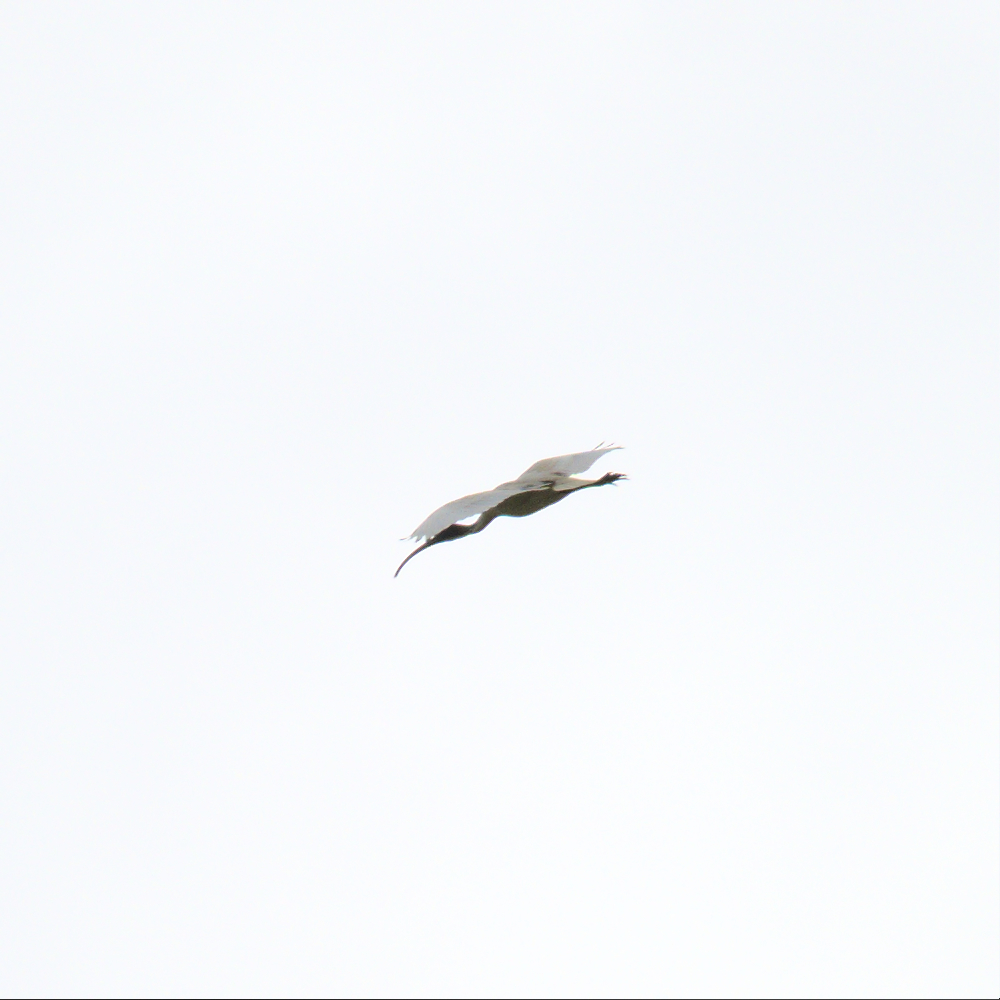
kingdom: Animalia
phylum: Chordata
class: Aves
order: Pelecaniformes
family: Threskiornithidae
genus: Threskiornis
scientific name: Threskiornis molucca
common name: Australian white ibis
